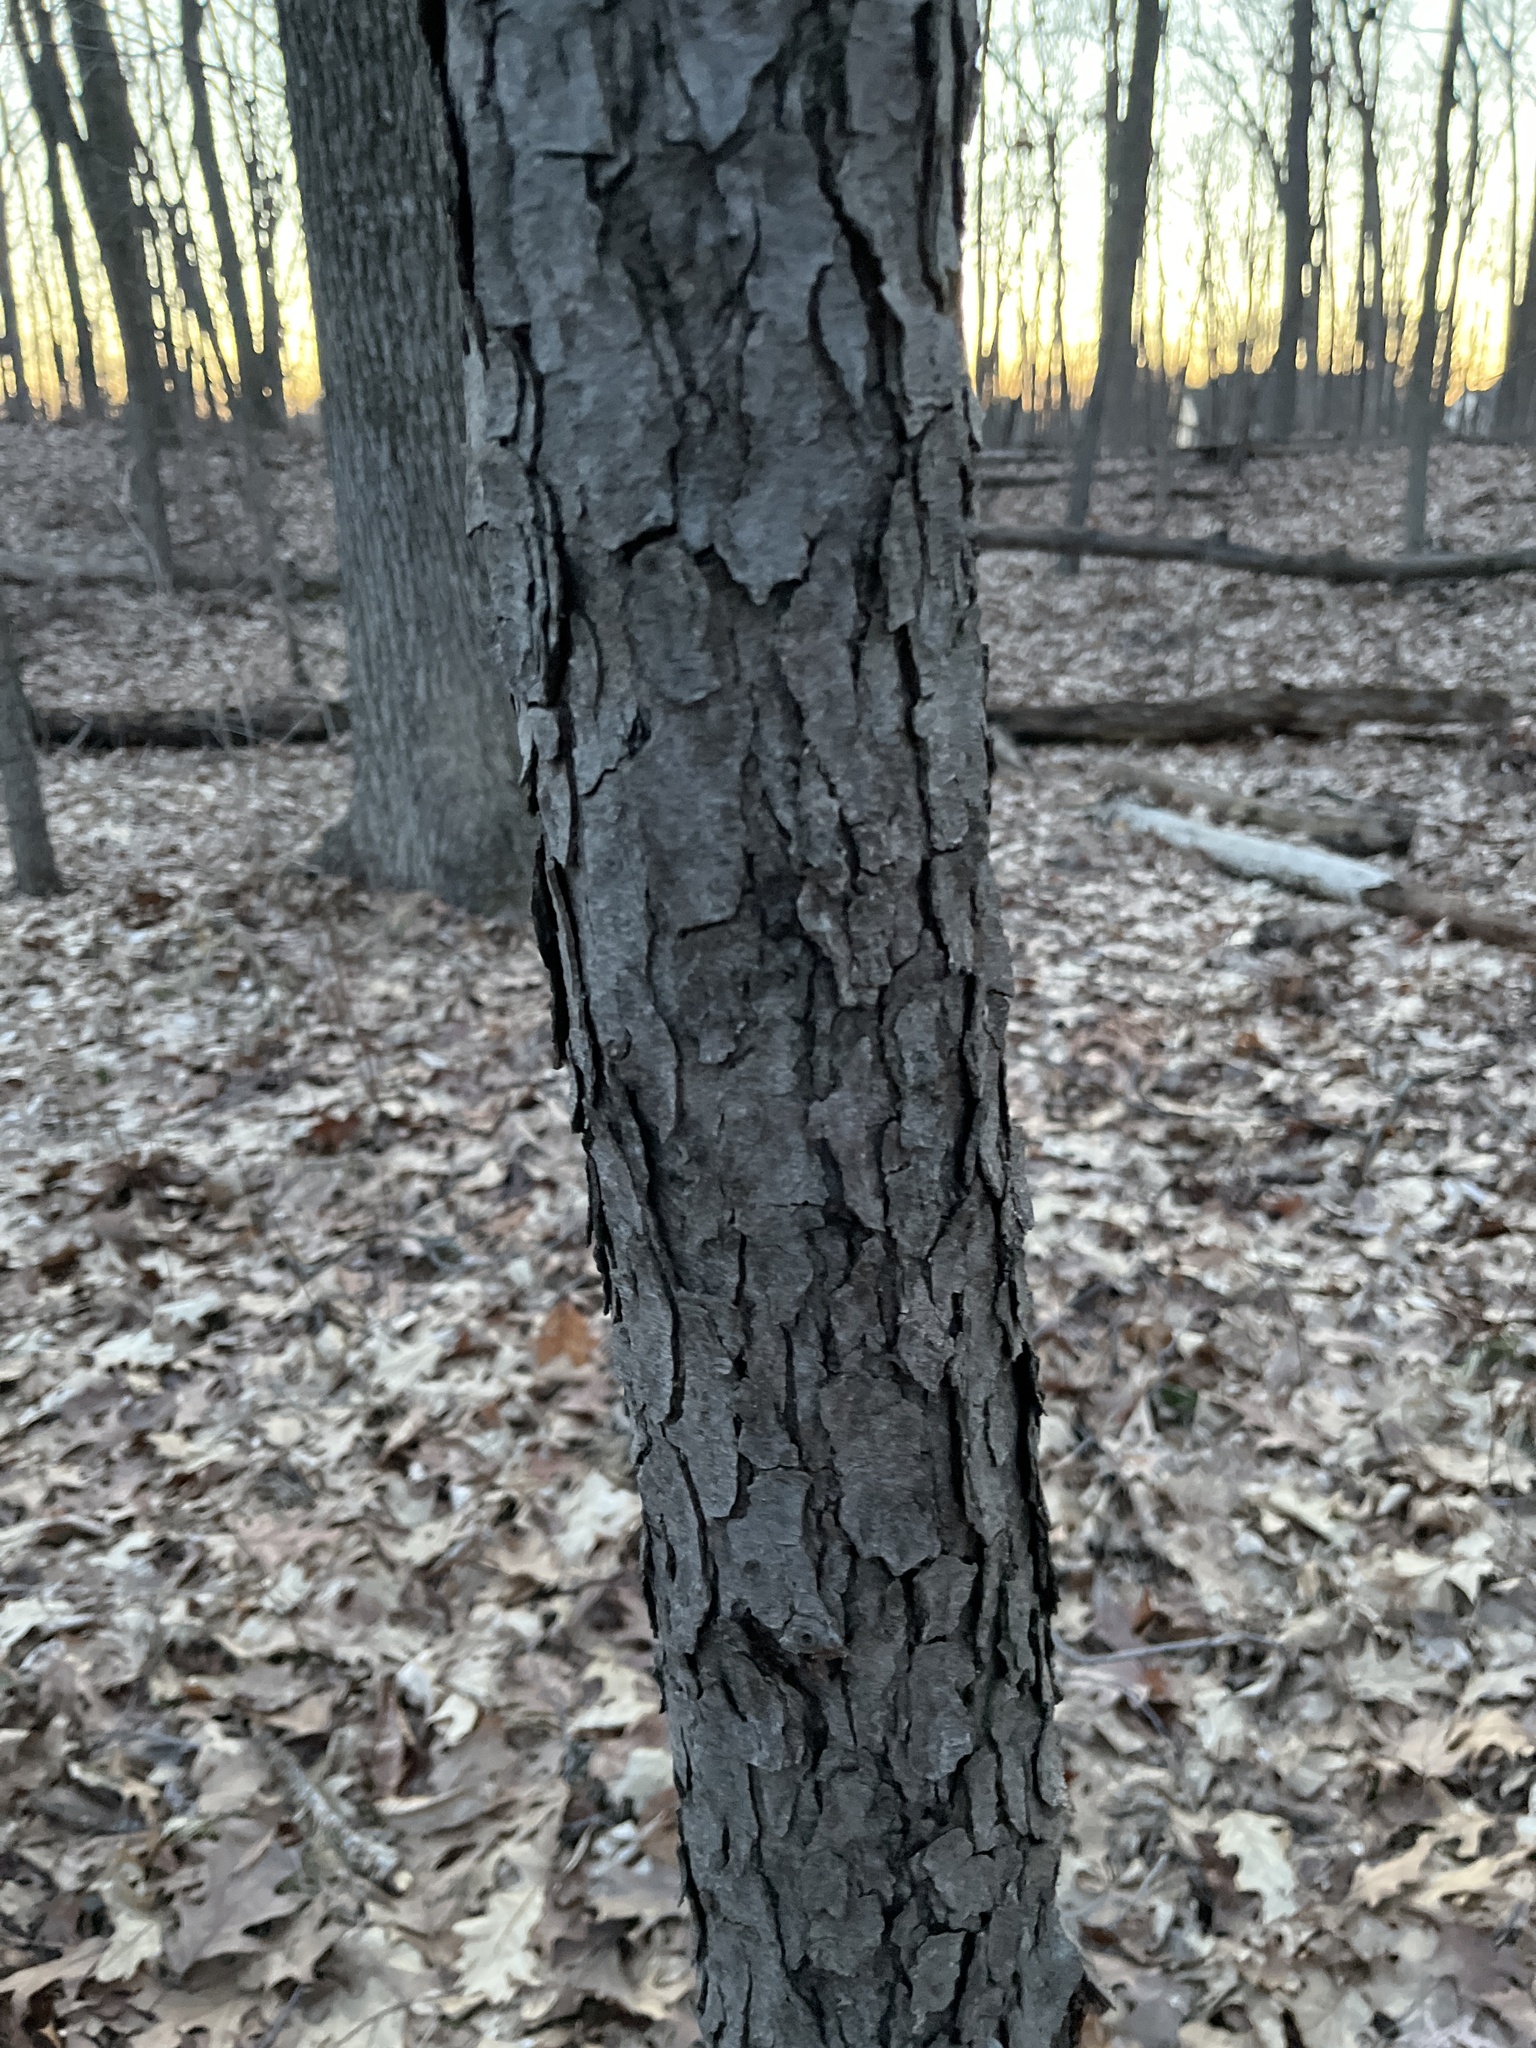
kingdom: Plantae
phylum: Tracheophyta
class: Magnoliopsida
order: Rosales
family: Rosaceae
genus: Prunus
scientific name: Prunus serotina
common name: Black cherry
